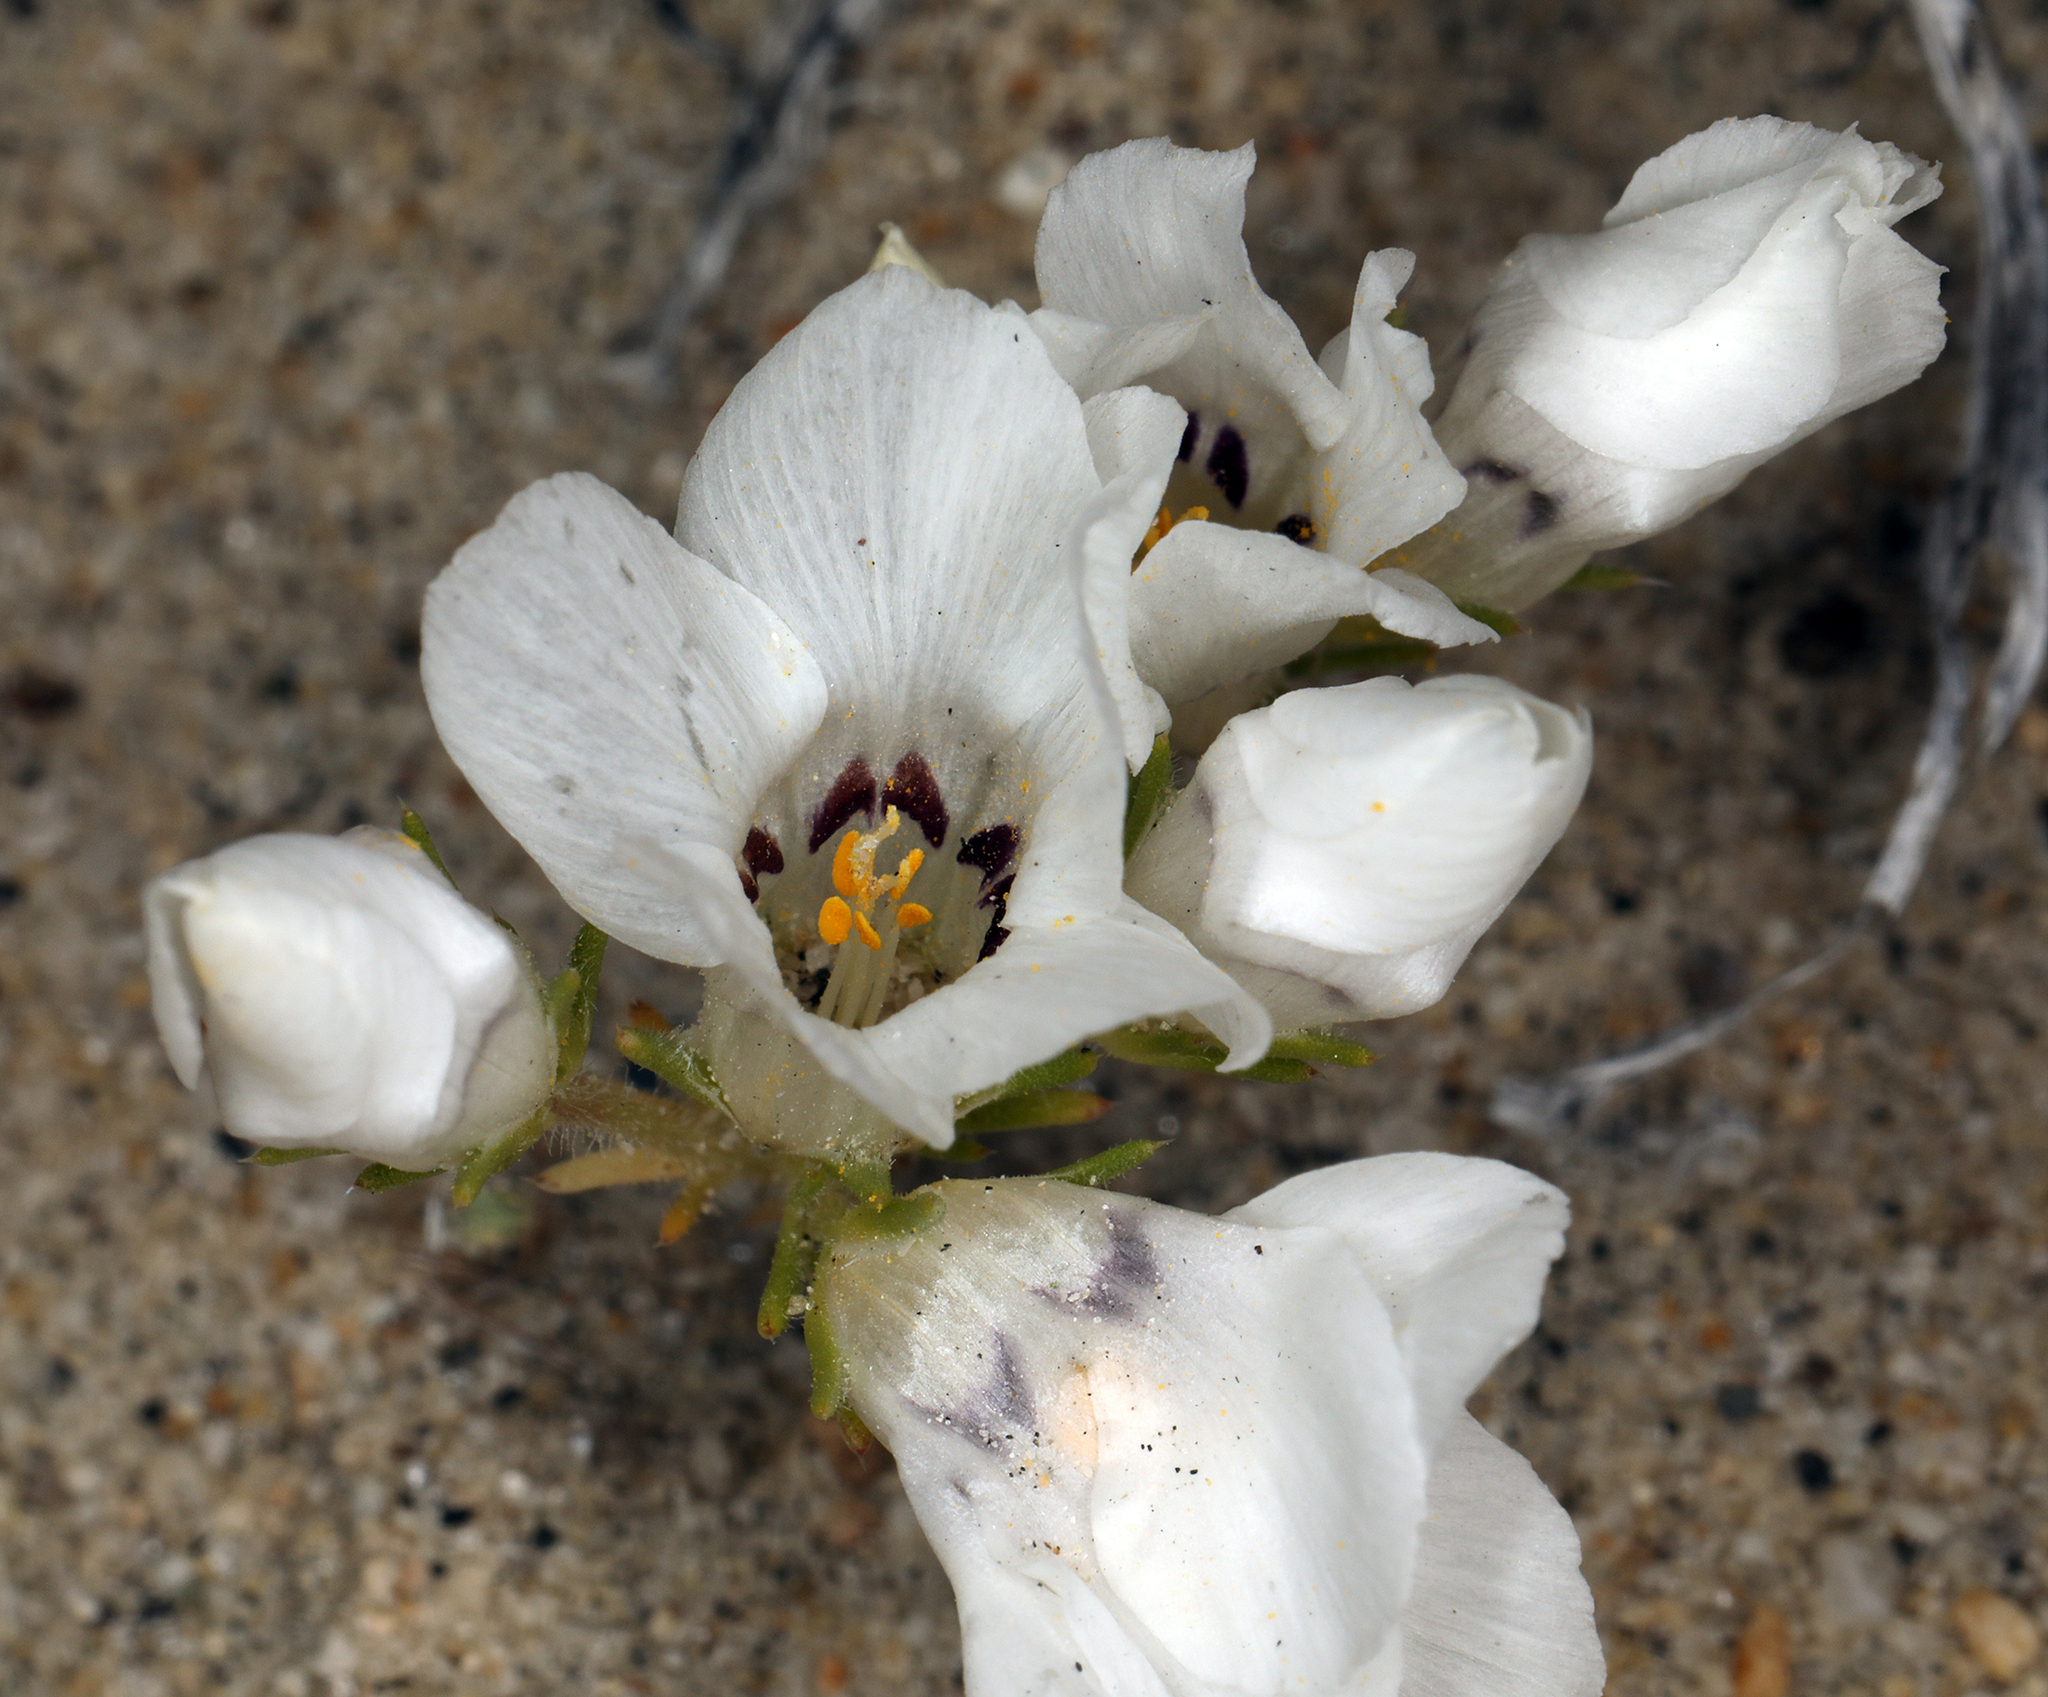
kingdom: Plantae
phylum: Tracheophyta
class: Magnoliopsida
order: Ericales
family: Polemoniaceae
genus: Linanthus
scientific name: Linanthus parryae
